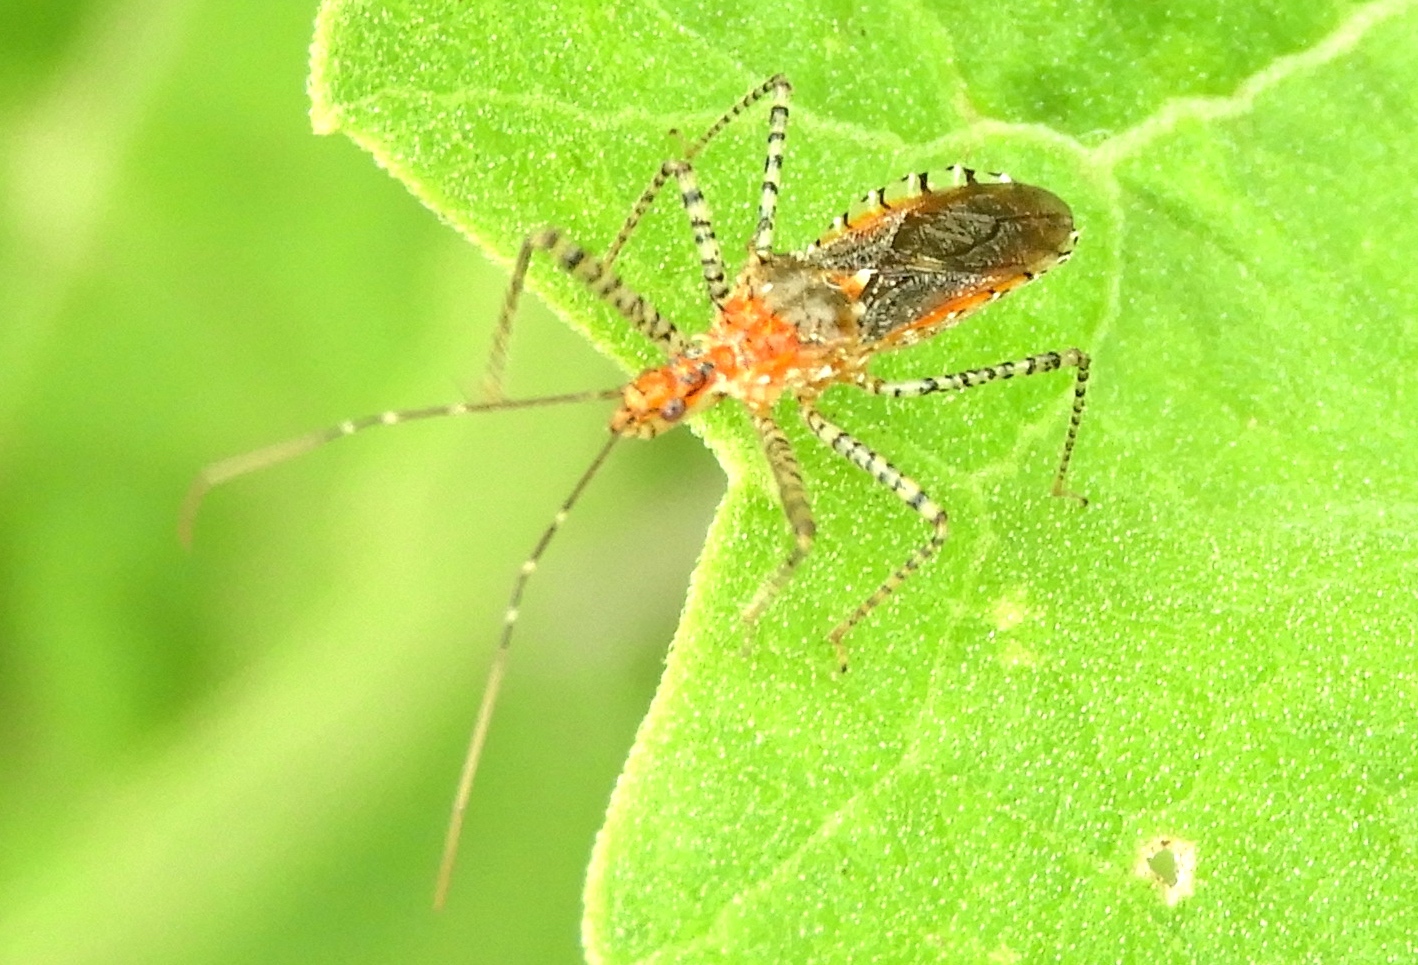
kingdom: Animalia
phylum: Arthropoda
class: Insecta
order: Hemiptera
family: Reduviidae
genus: Pselliopus
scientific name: Pselliopus
